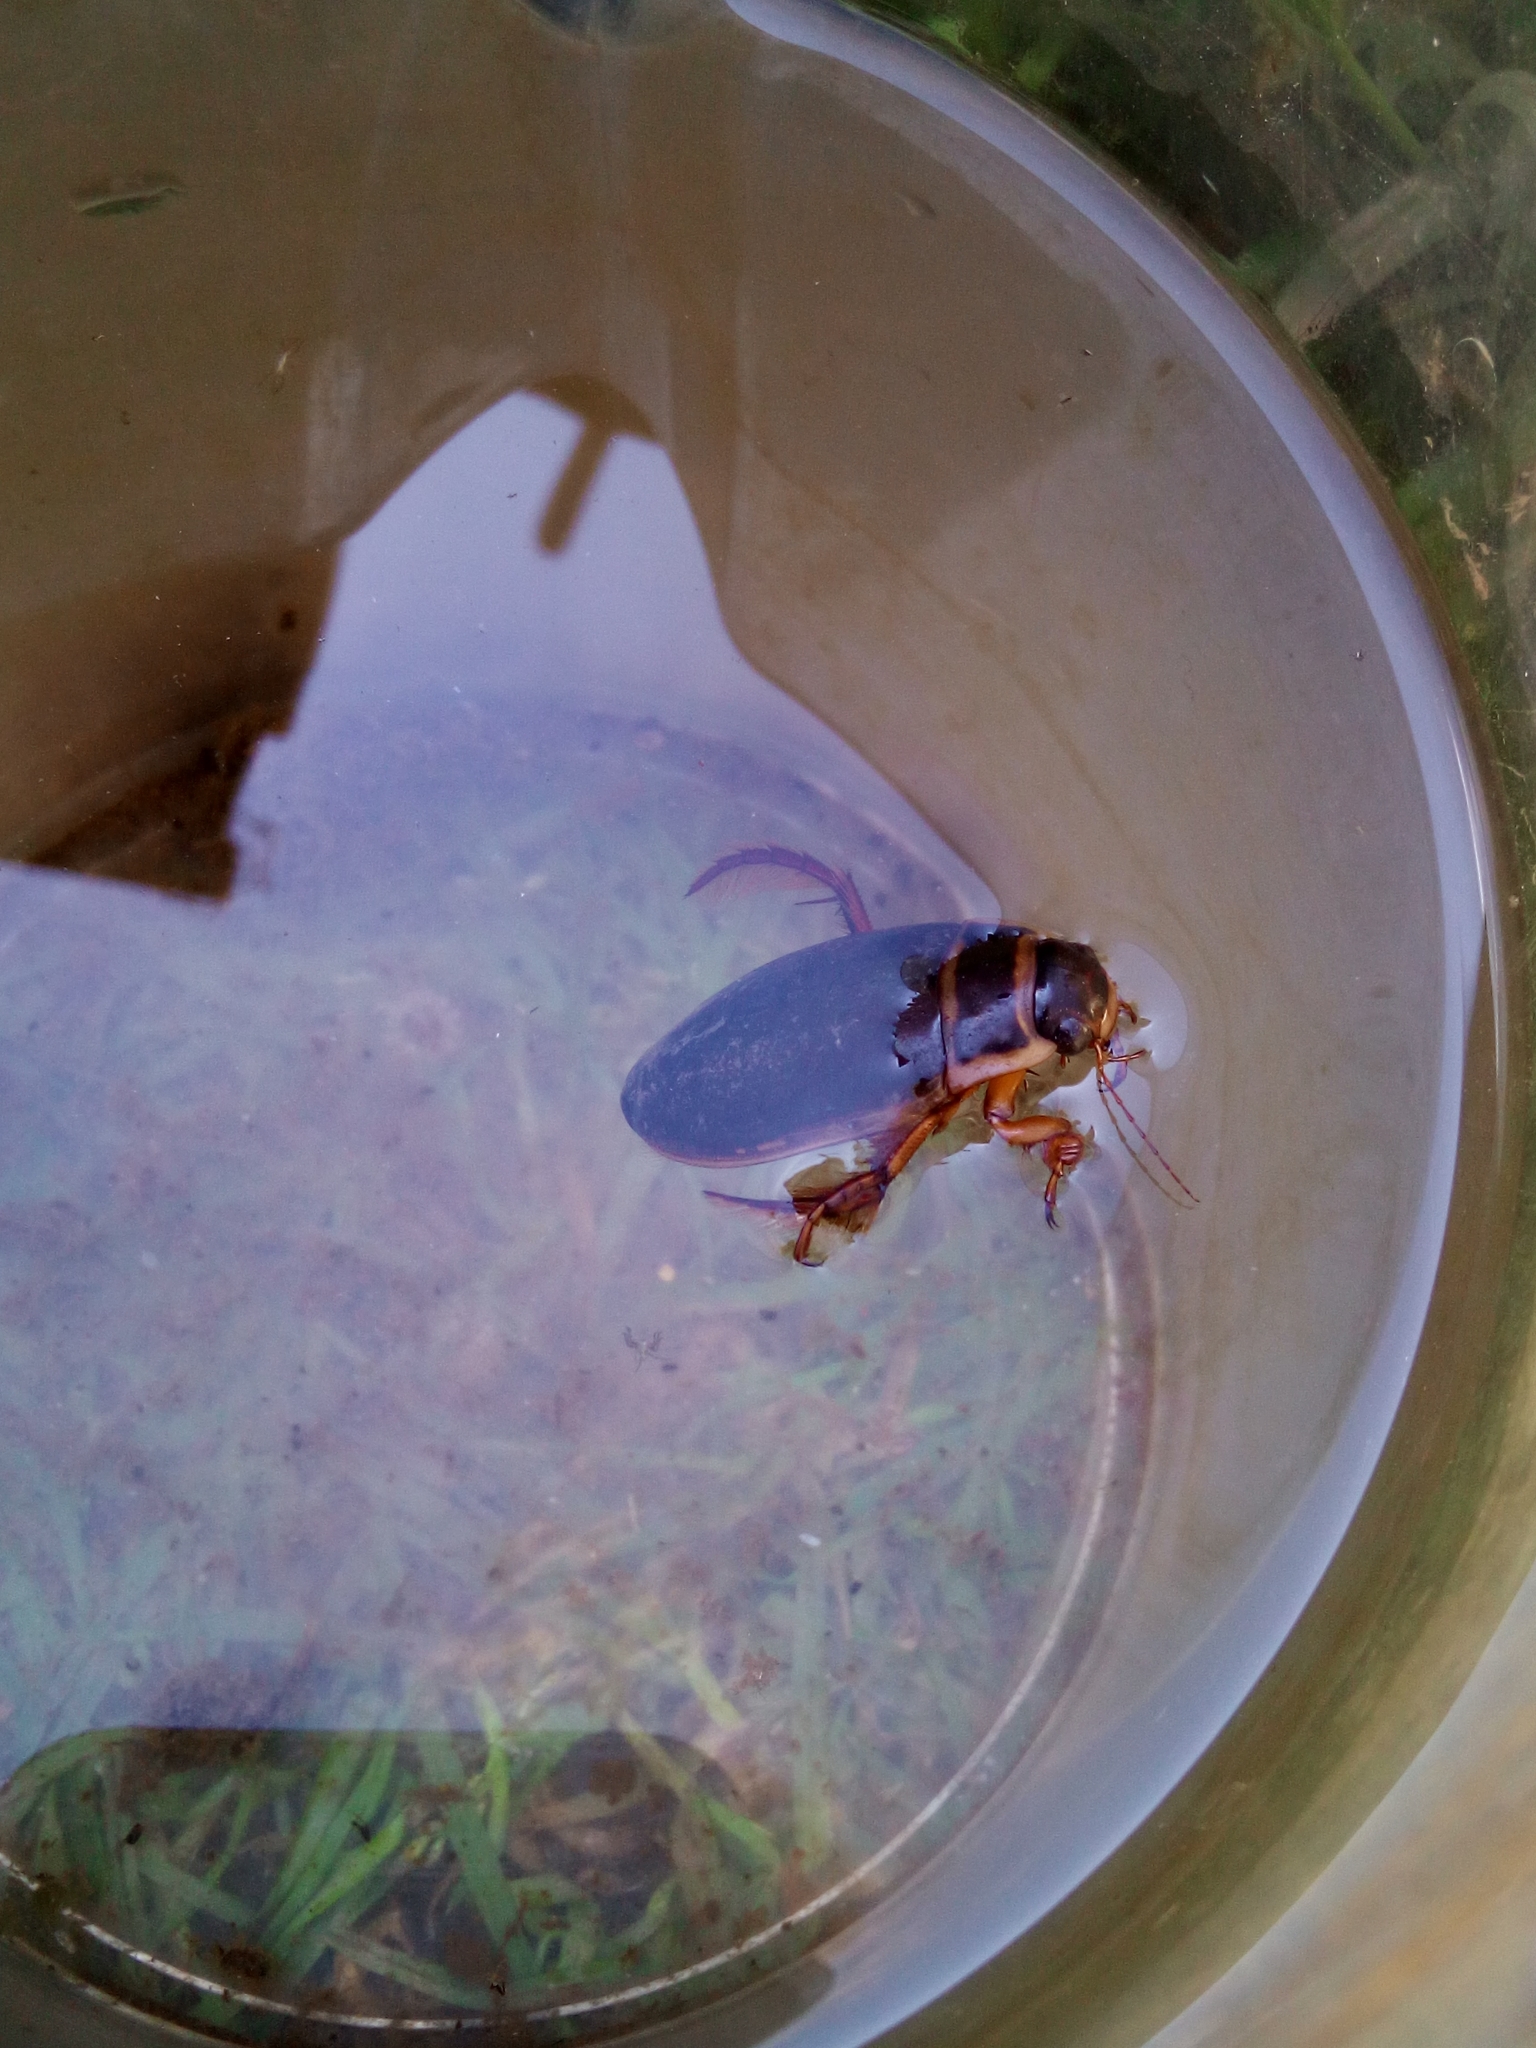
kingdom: Animalia
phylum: Arthropoda
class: Insecta
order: Coleoptera
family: Dytiscidae
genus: Dytiscus
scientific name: Dytiscus marginalis
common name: Great water beetle
